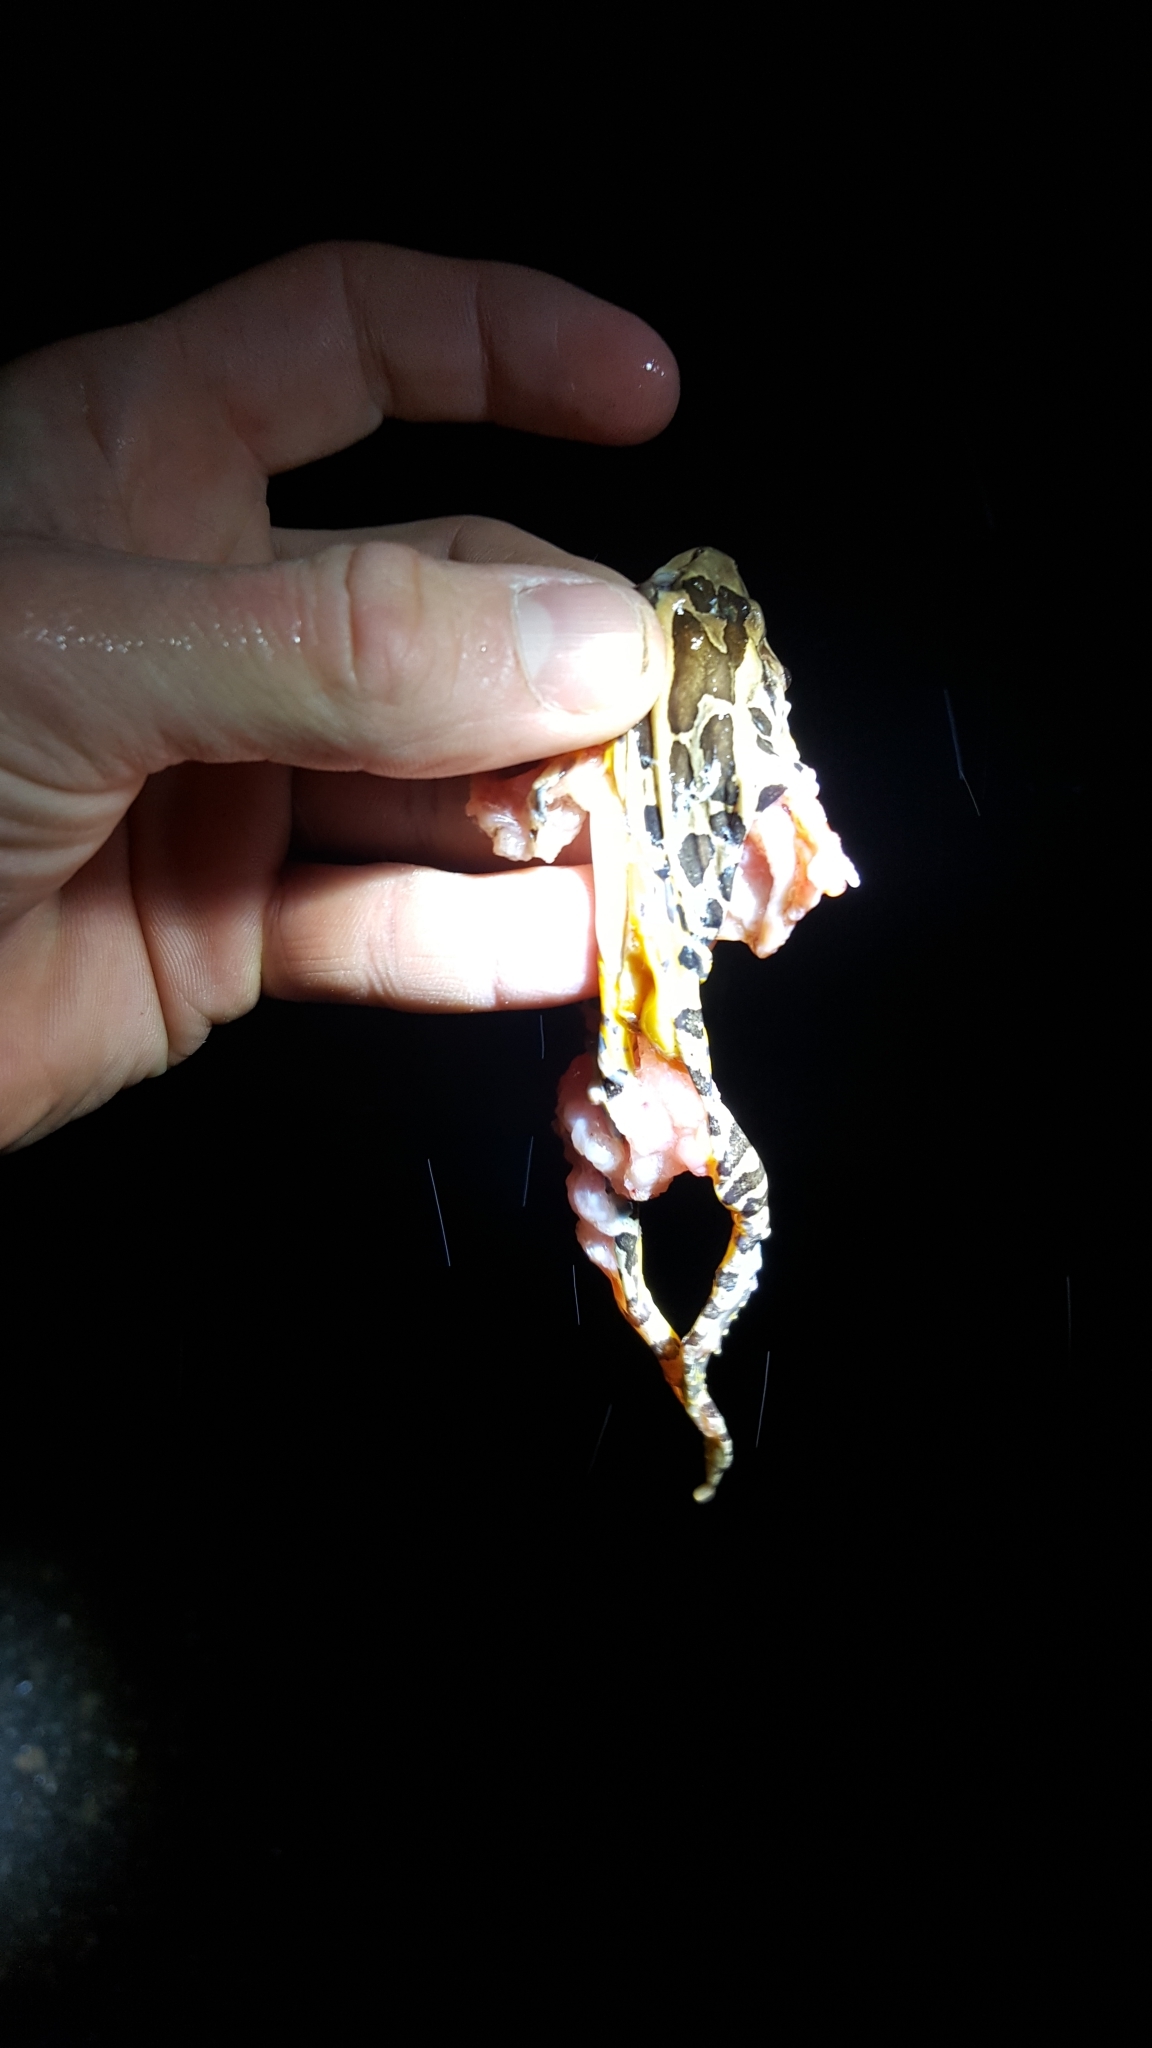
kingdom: Animalia
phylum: Chordata
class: Amphibia
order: Anura
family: Ranidae
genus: Lithobates
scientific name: Lithobates palustris
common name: Pickerel frog
